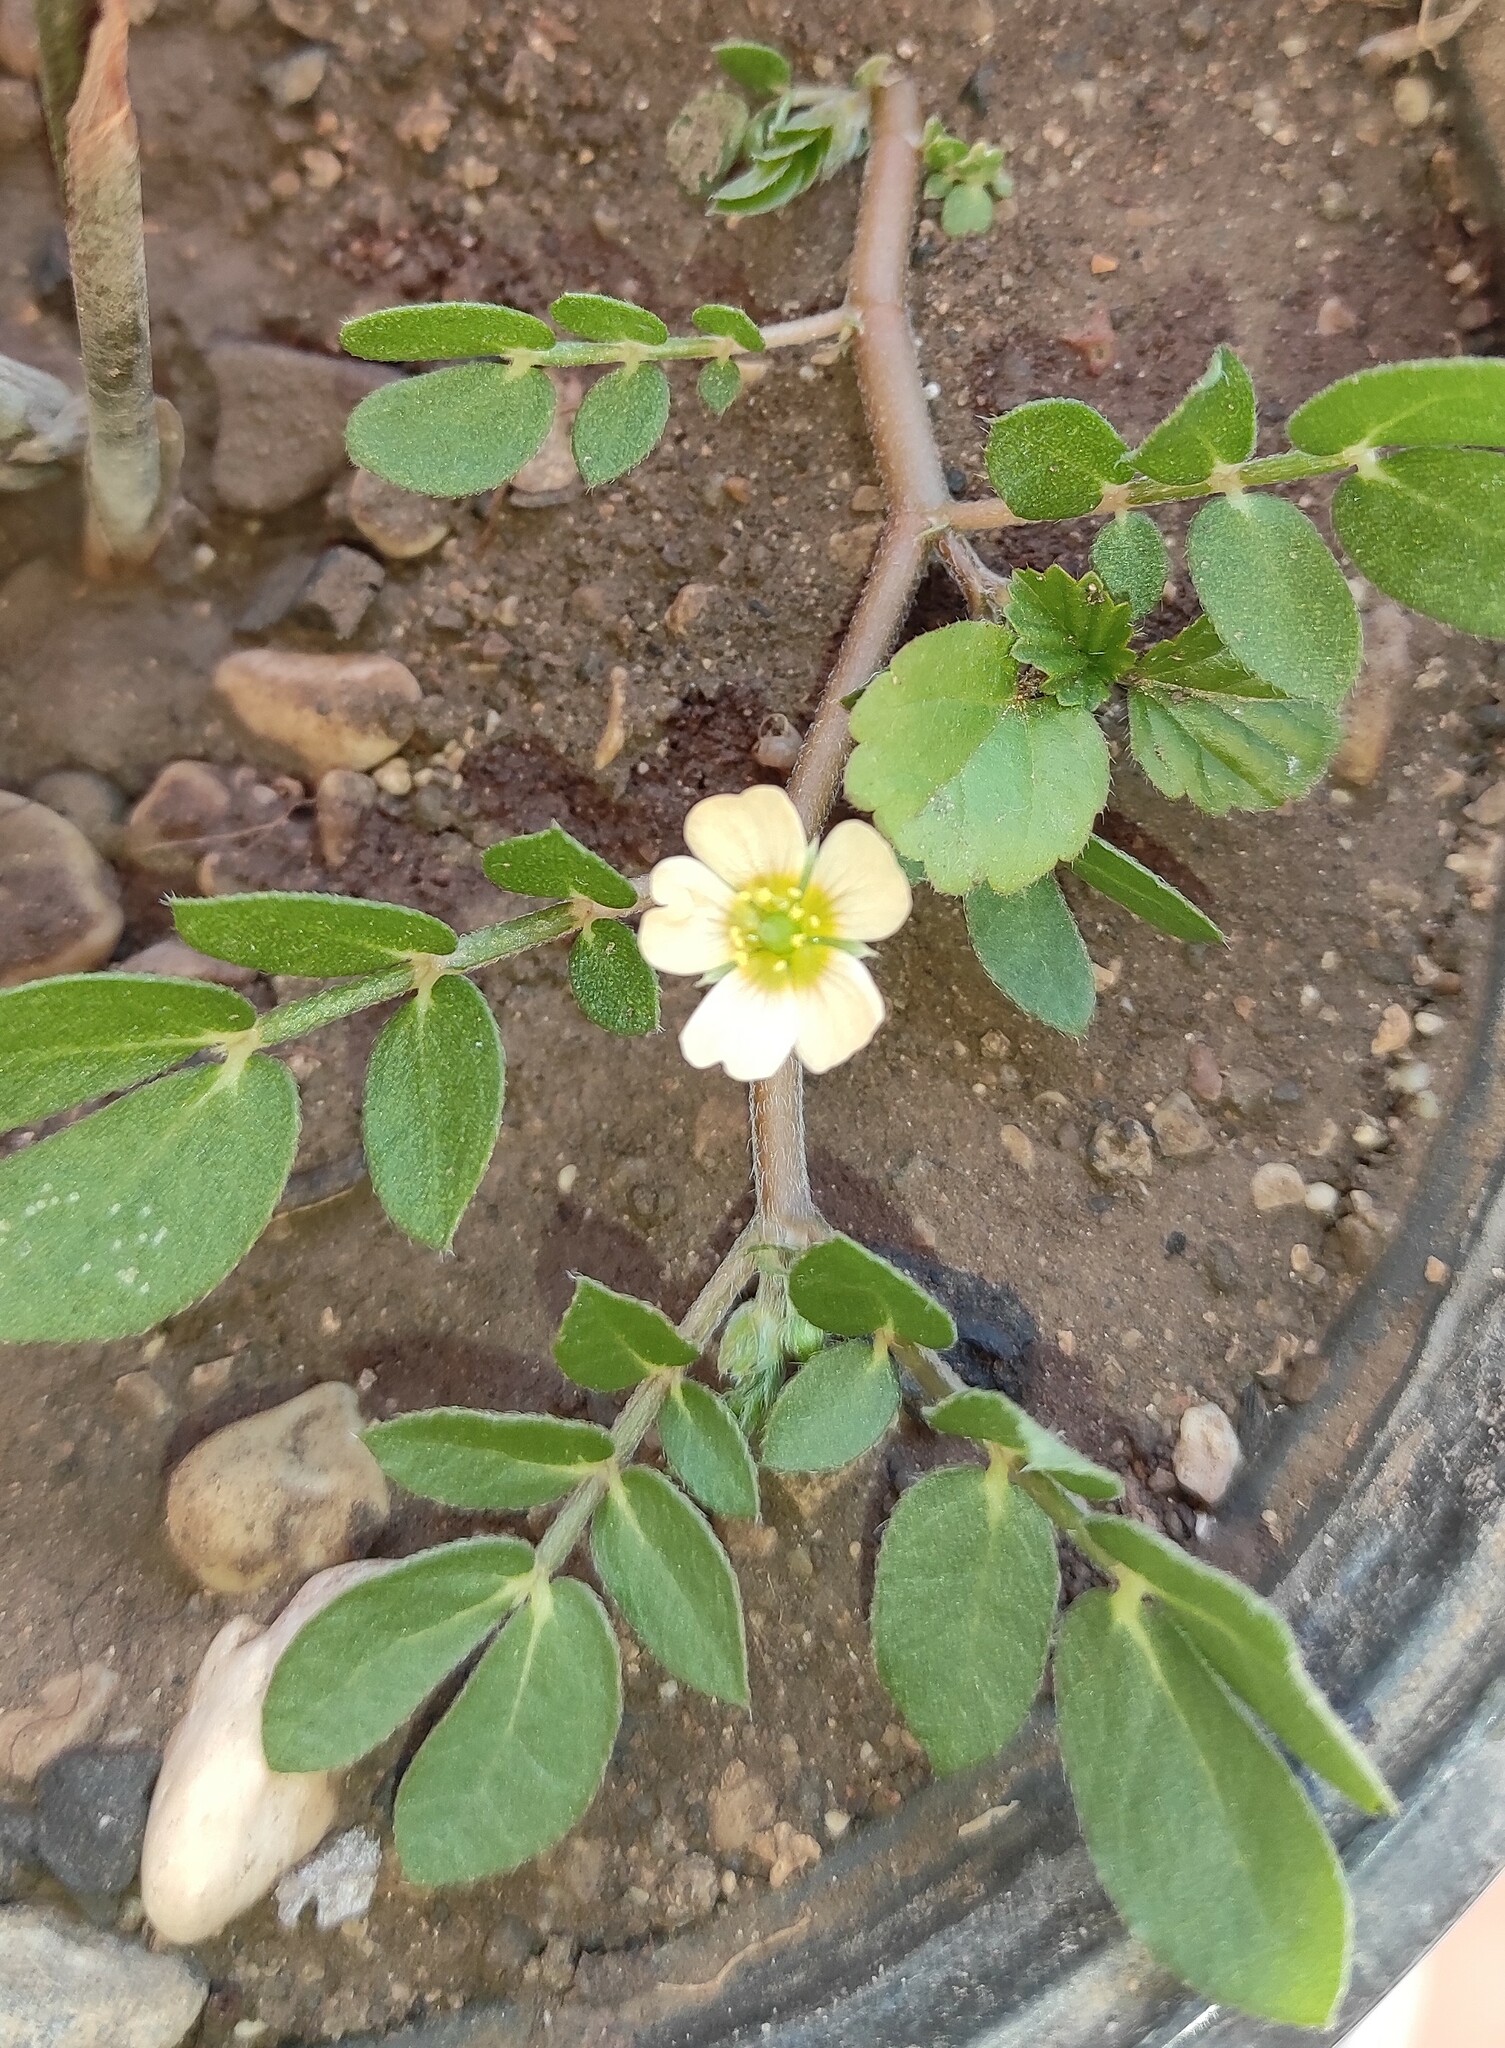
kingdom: Plantae
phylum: Tracheophyta
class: Magnoliopsida
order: Zygophyllales
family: Zygophyllaceae
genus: Kallstroemia
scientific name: Kallstroemia maxima
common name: Big caltropa
